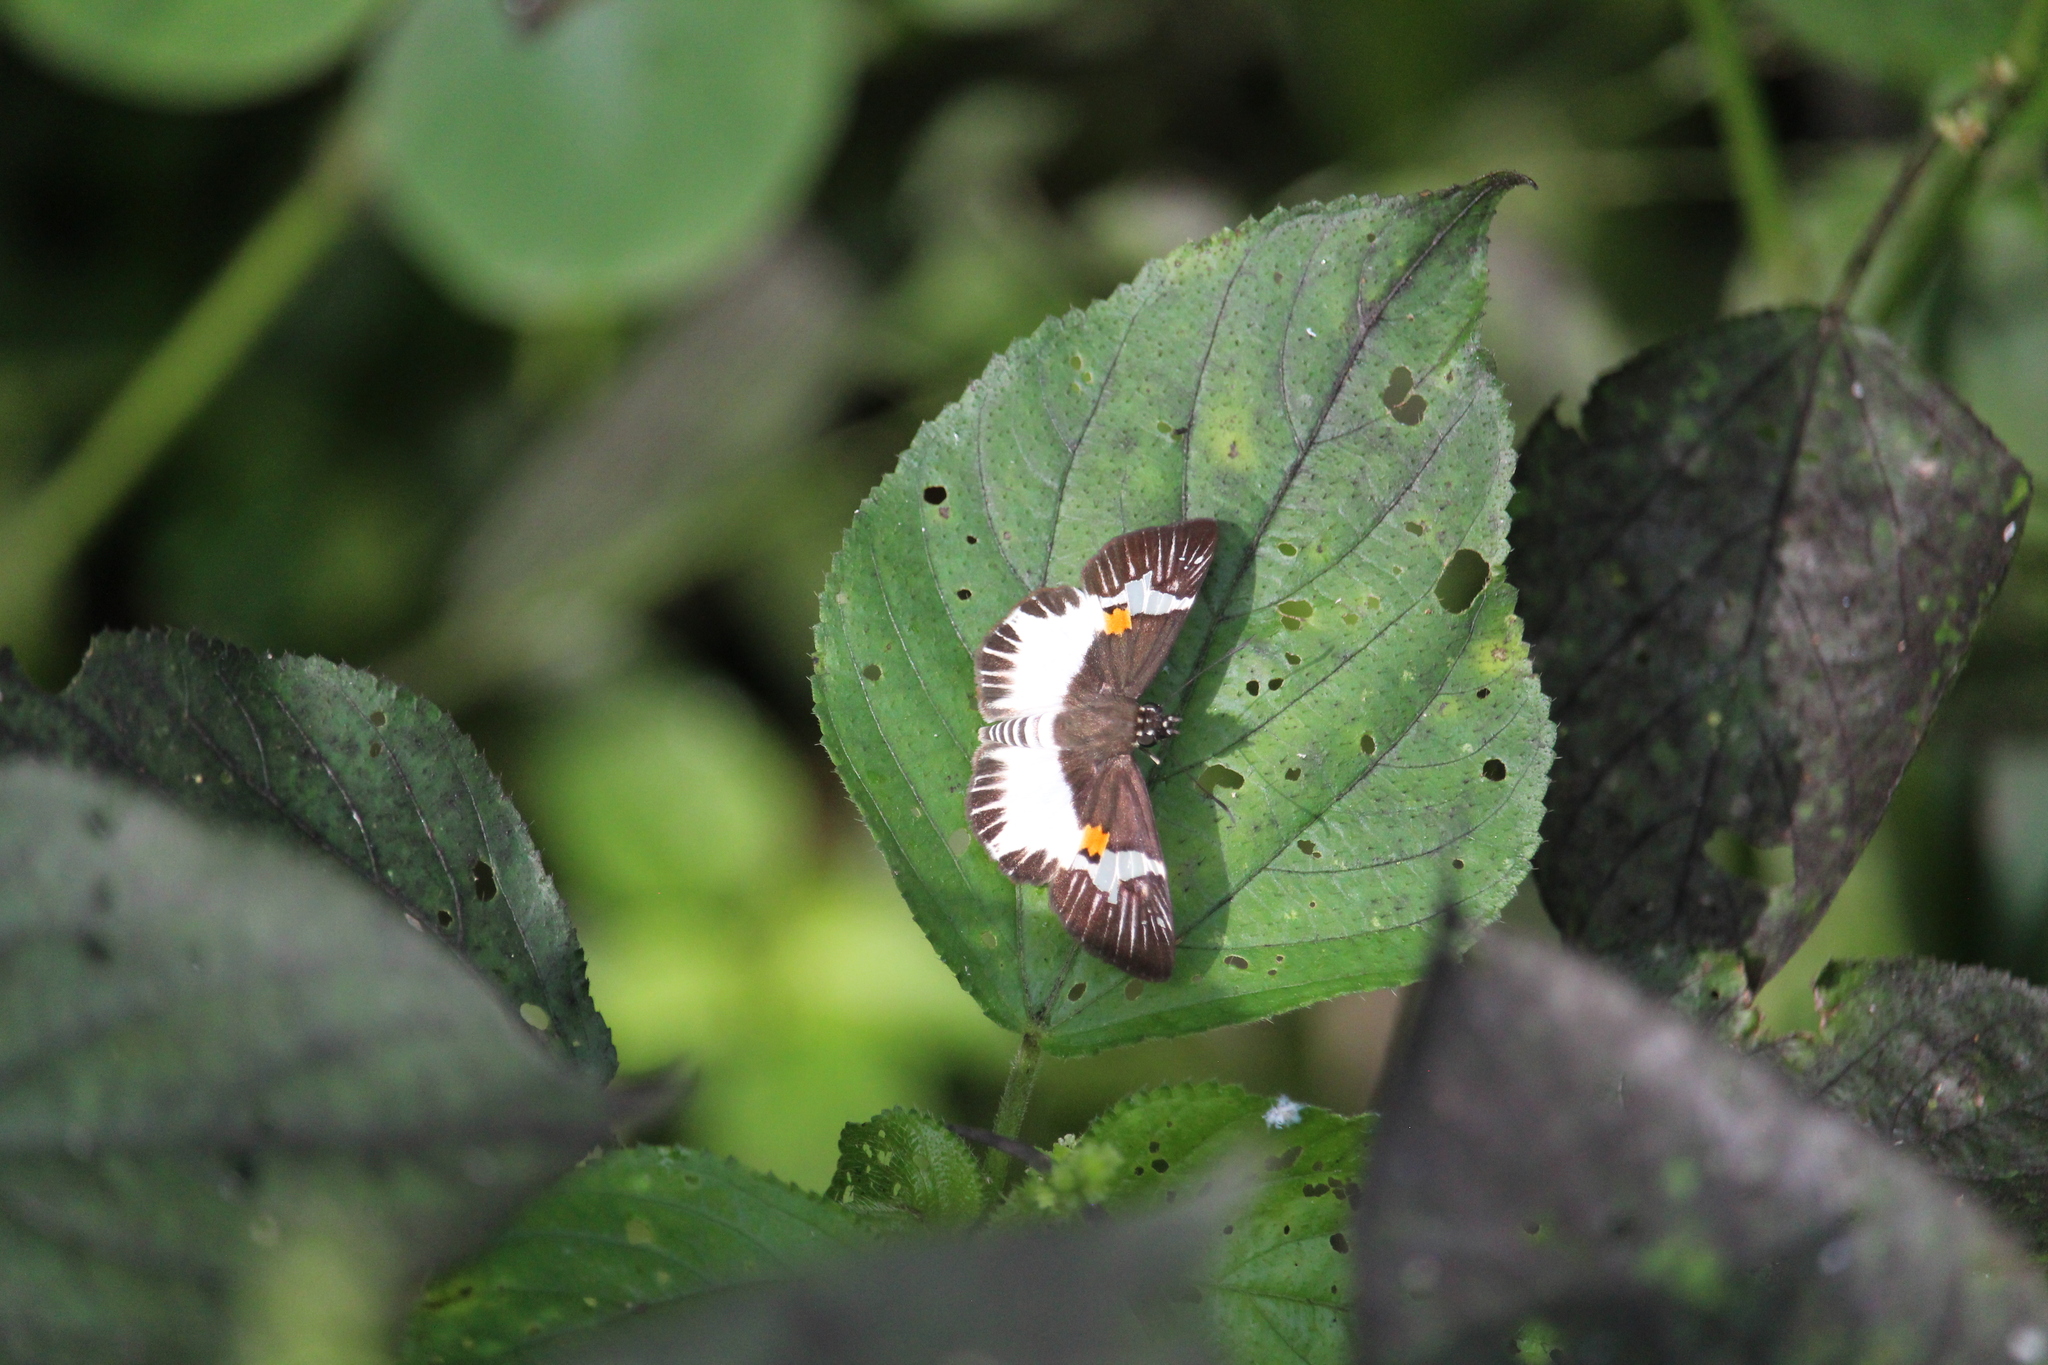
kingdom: Animalia
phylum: Arthropoda
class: Insecta
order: Lepidoptera
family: Hesperiidae
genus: Atarnes
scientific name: Atarnes sallei
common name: Orange-spotted skipper
